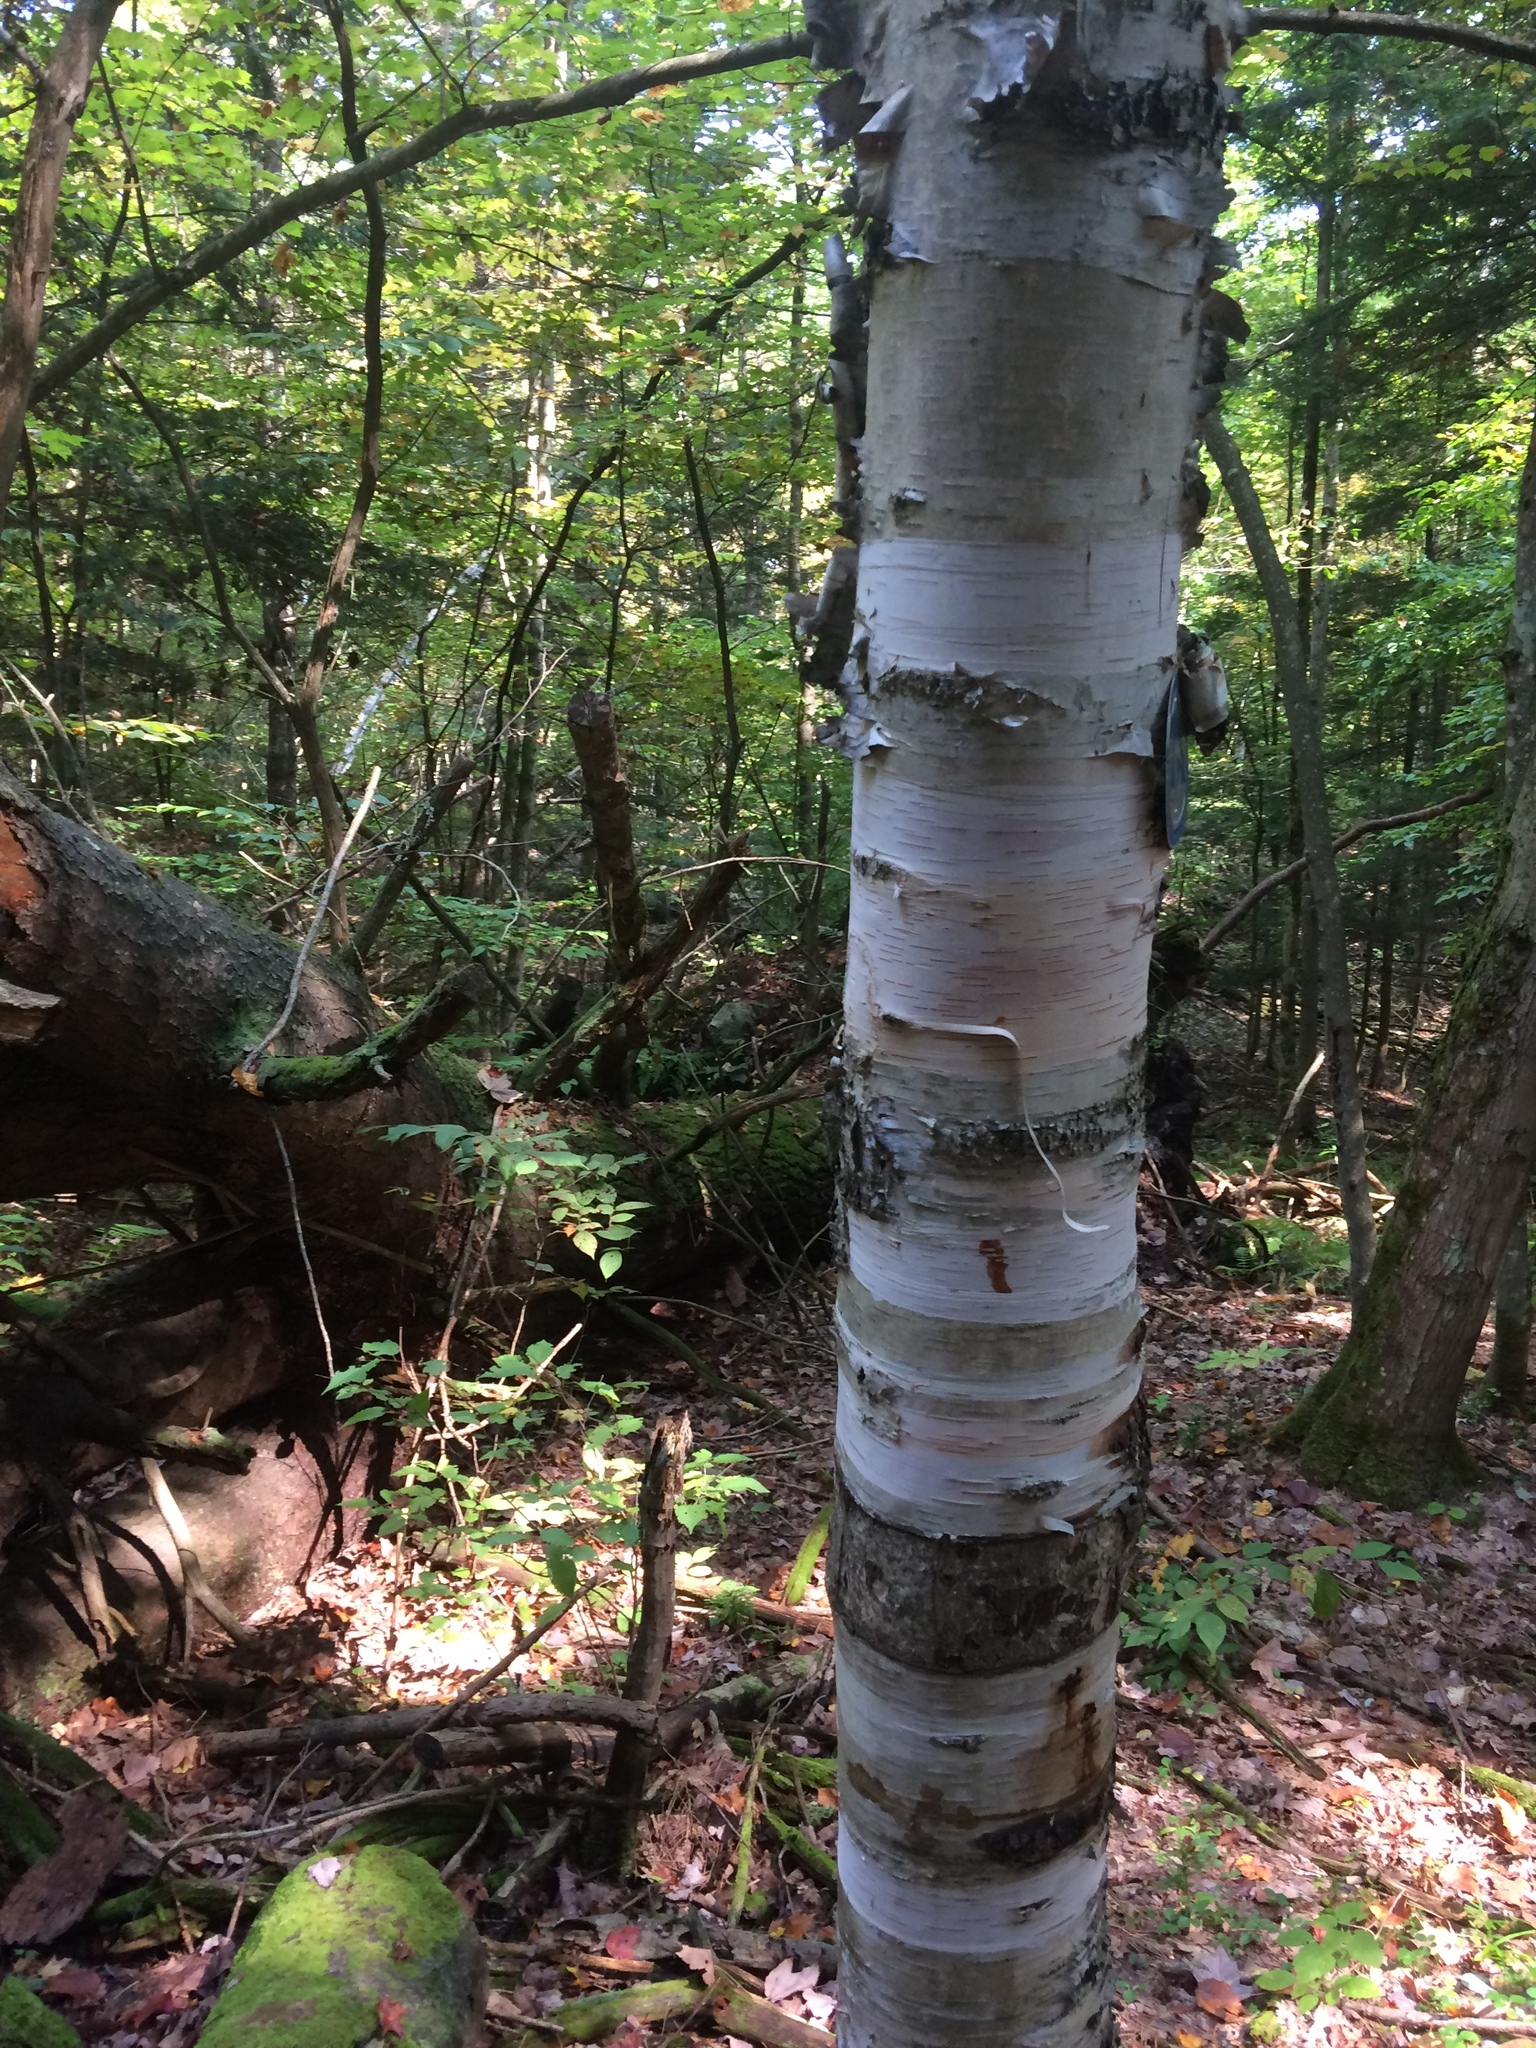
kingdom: Plantae
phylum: Tracheophyta
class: Magnoliopsida
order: Fagales
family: Betulaceae
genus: Betula
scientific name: Betula papyrifera
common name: Paper birch
